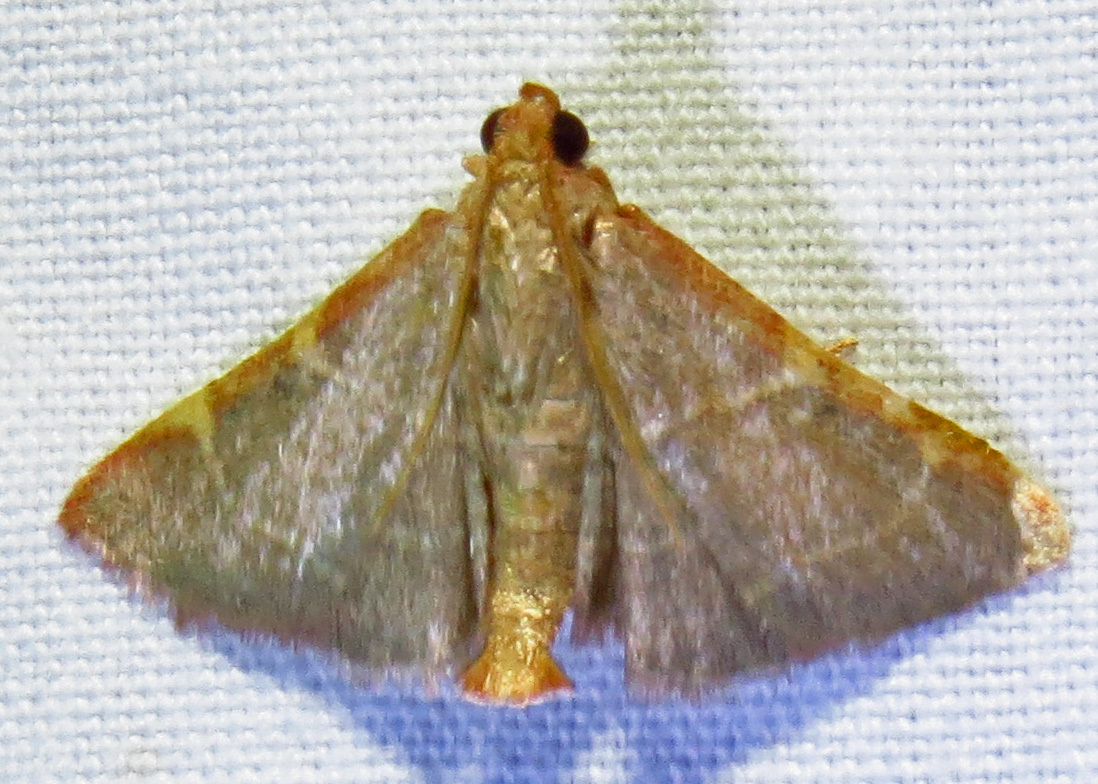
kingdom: Animalia
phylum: Arthropoda
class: Insecta
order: Lepidoptera
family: Pyralidae
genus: Hypsopygia
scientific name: Hypsopygia binodulalis
